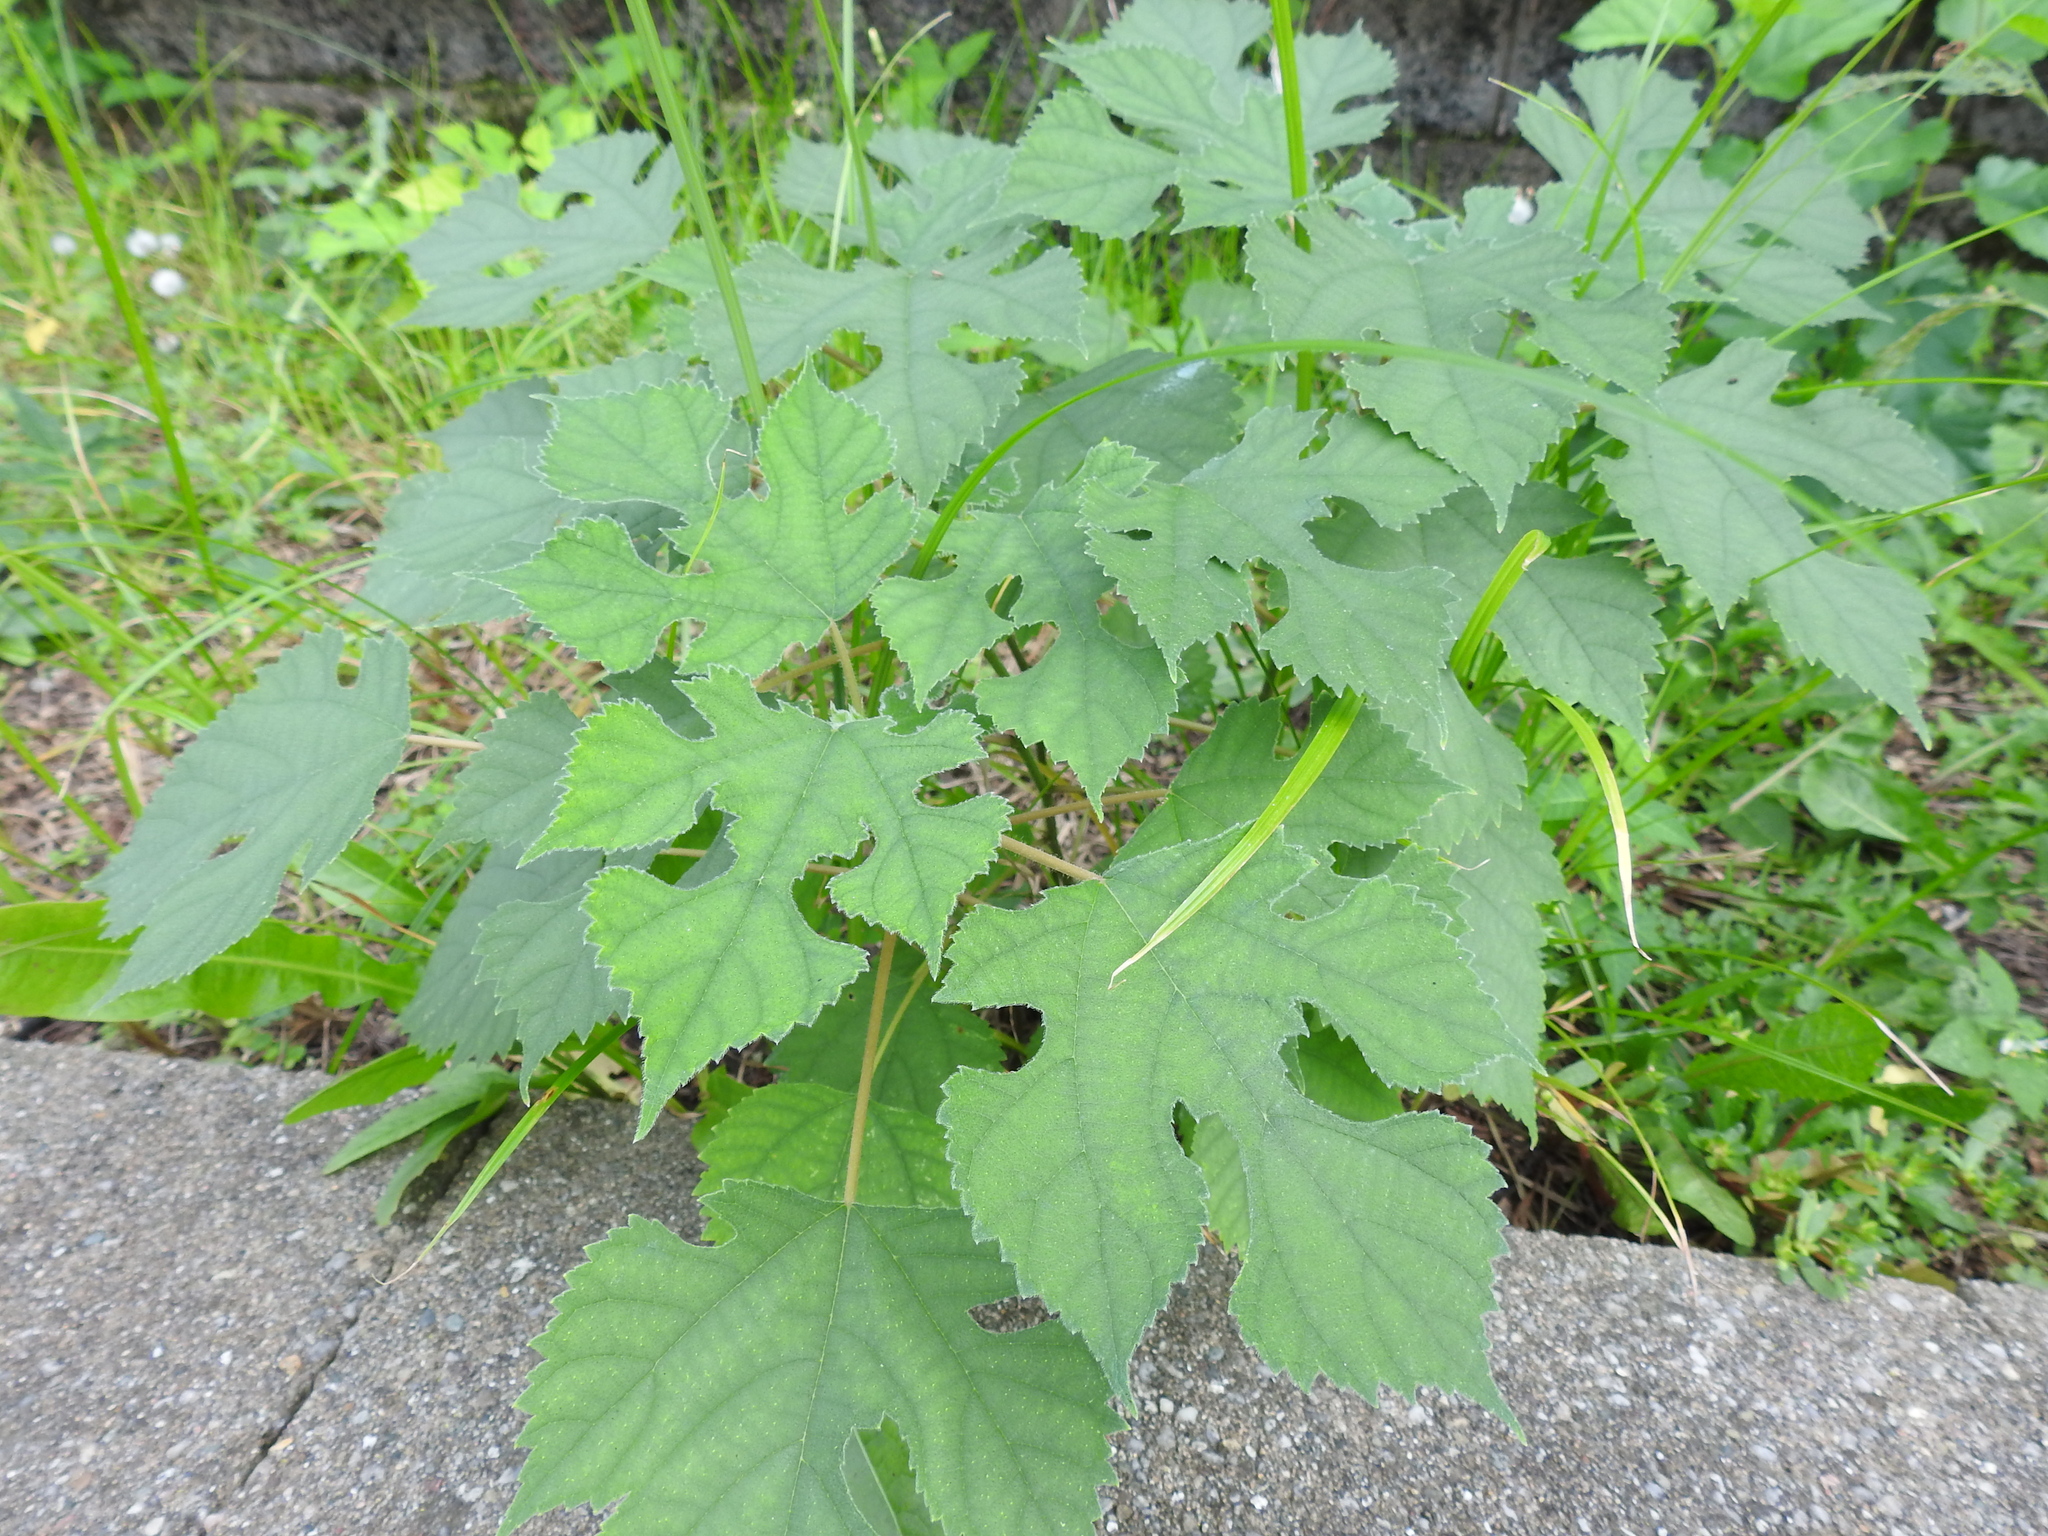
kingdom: Plantae
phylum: Tracheophyta
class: Magnoliopsida
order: Rosales
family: Moraceae
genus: Broussonetia
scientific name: Broussonetia papyrifera
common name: Paper mulberry
